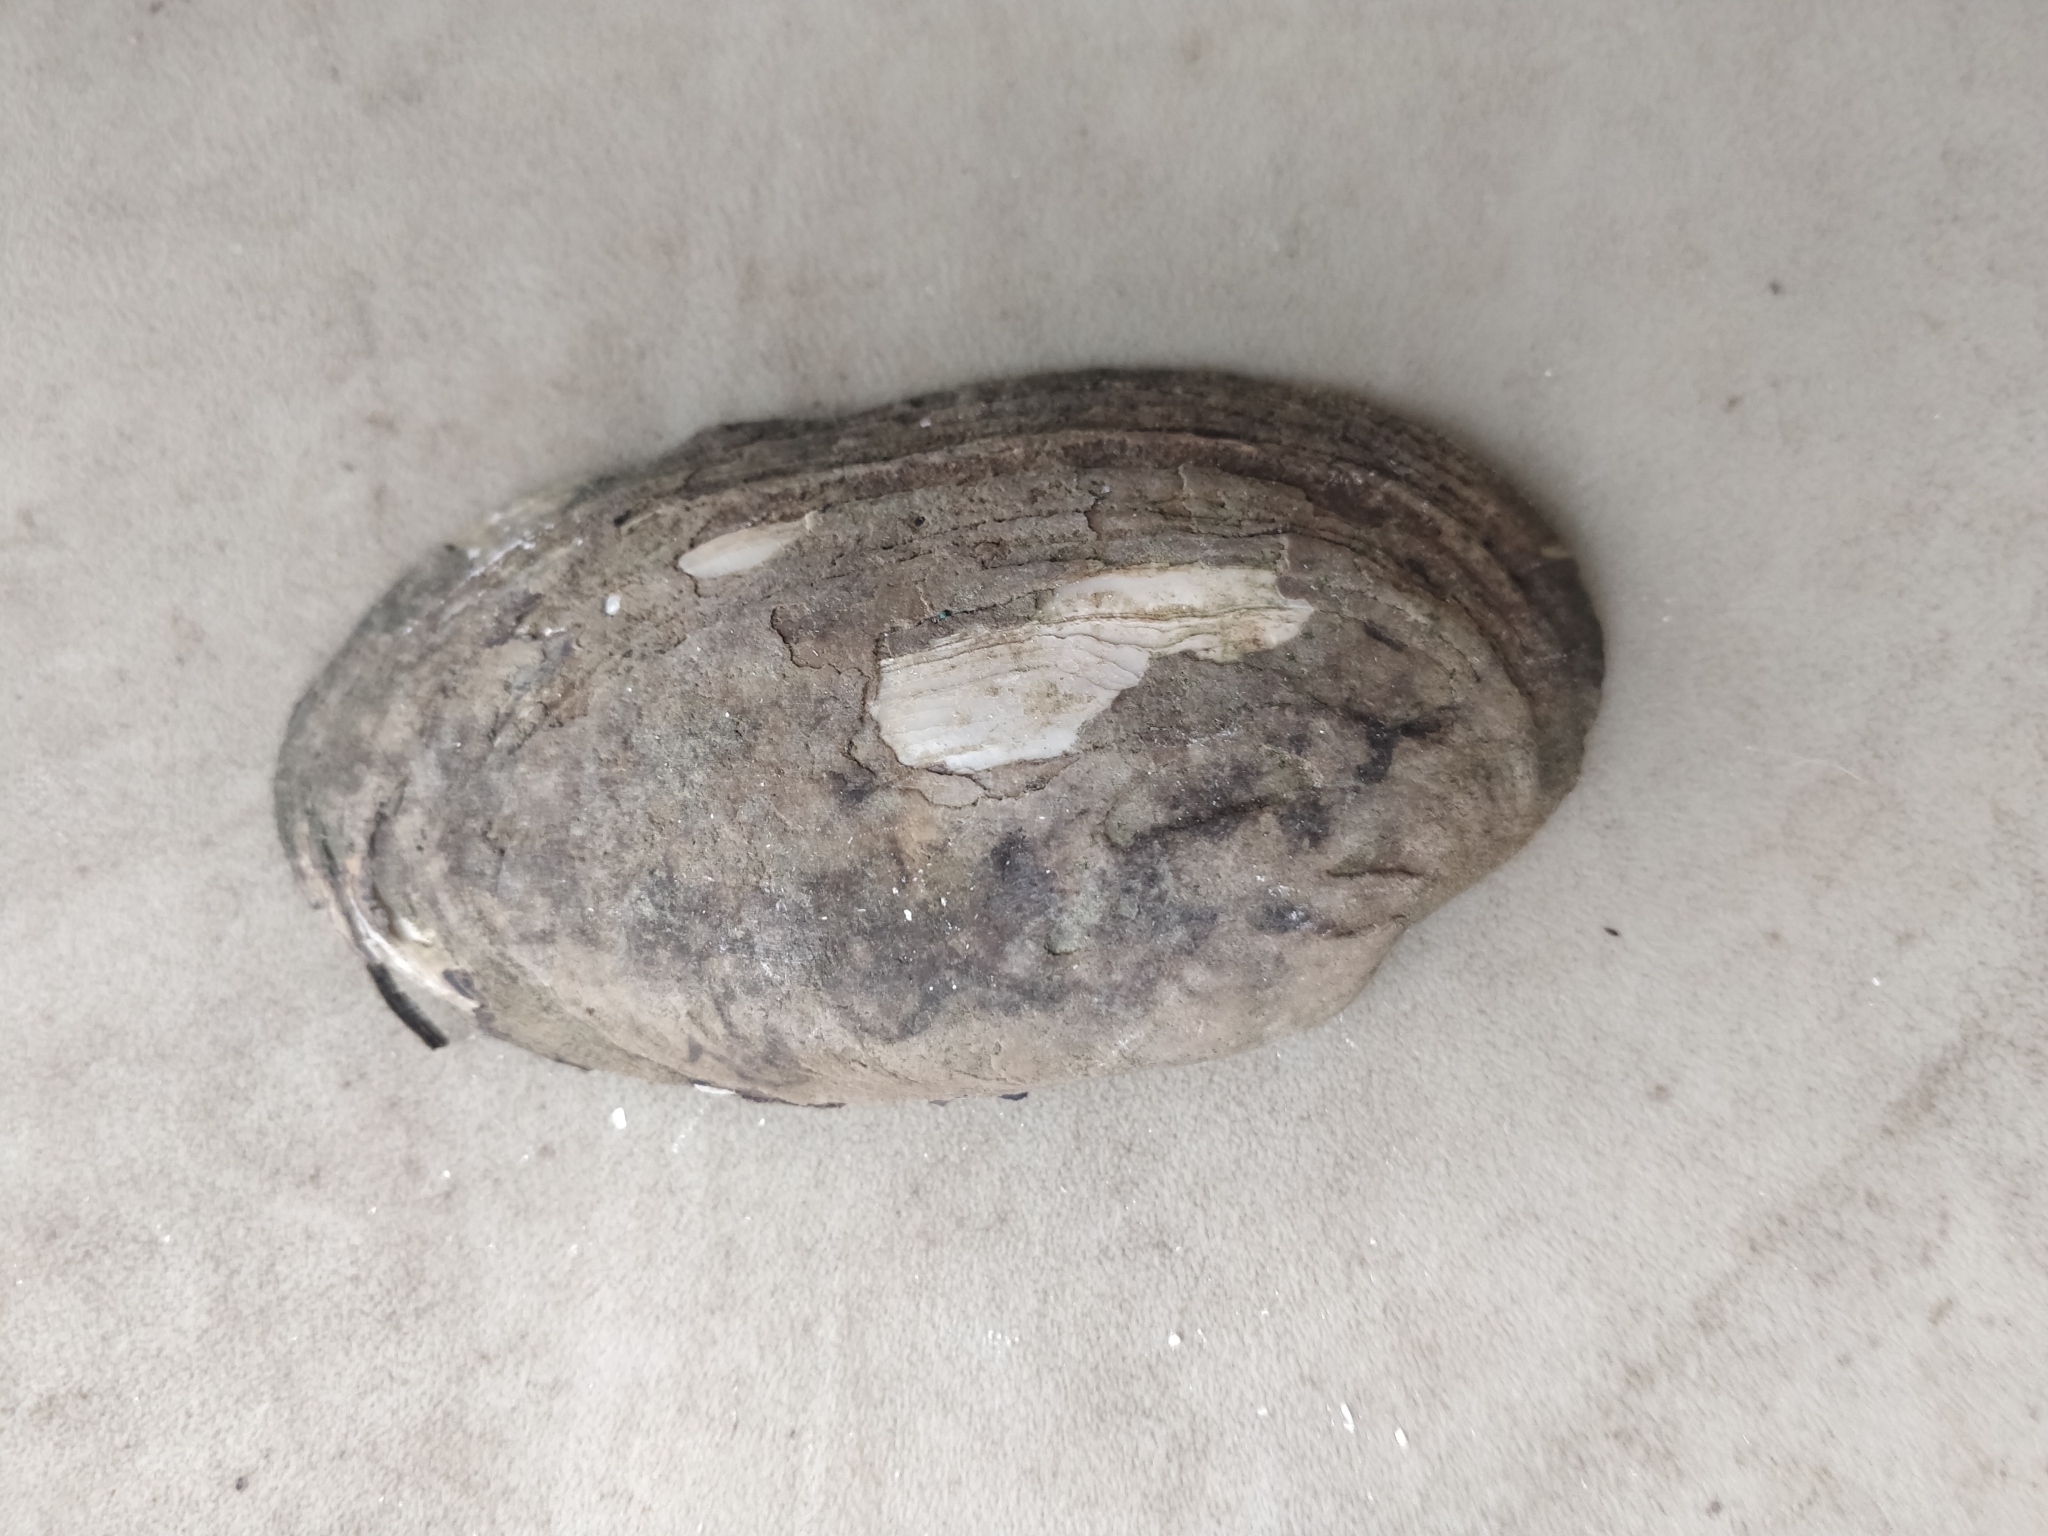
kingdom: Animalia
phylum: Mollusca
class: Bivalvia
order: Unionida
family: Unionidae
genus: Lampsilis
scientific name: Lampsilis siliquoidea
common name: Fatmucket
